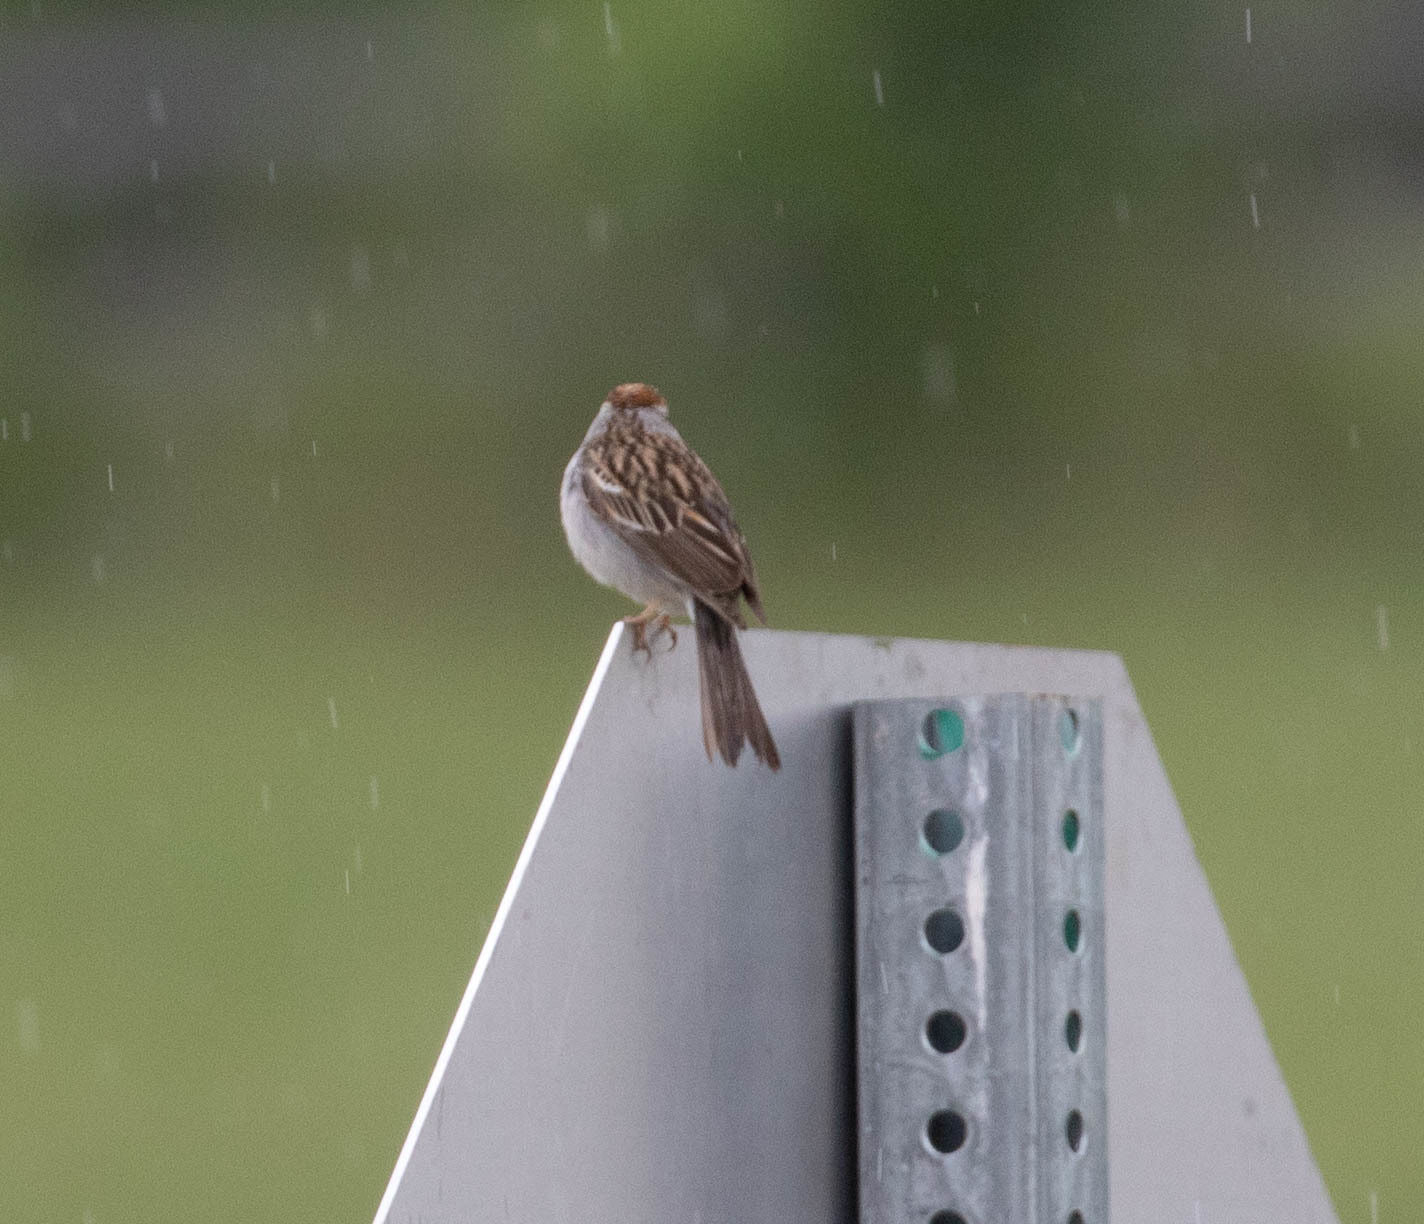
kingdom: Animalia
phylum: Chordata
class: Aves
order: Passeriformes
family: Passerellidae
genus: Spizella
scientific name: Spizella passerina
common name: Chipping sparrow
